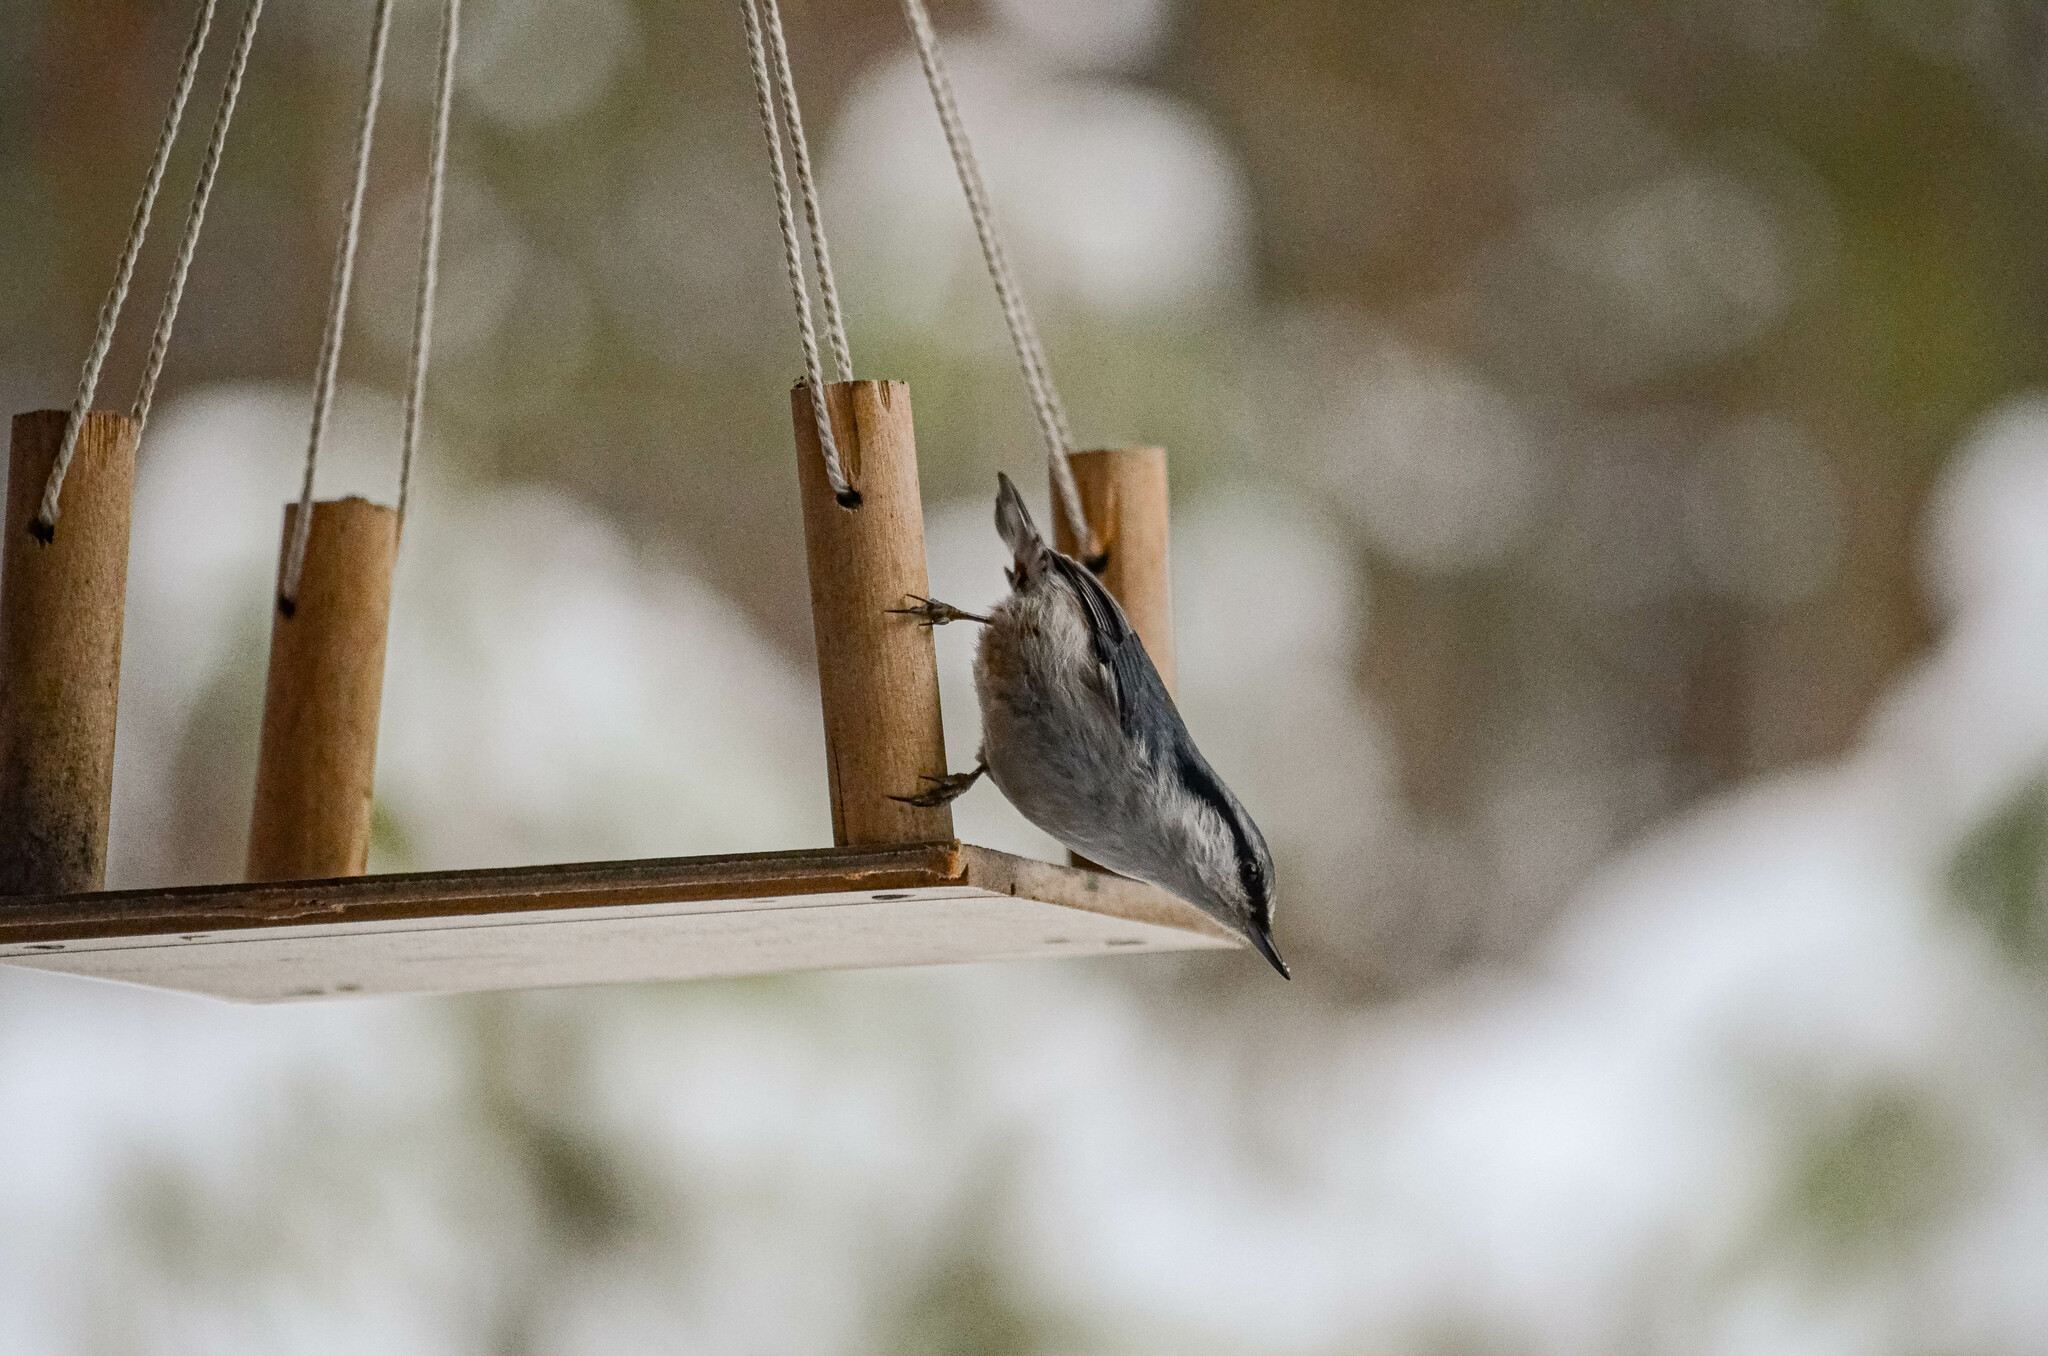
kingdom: Animalia
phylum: Chordata
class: Aves
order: Passeriformes
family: Sittidae
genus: Sitta
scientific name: Sitta europaea
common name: Eurasian nuthatch
